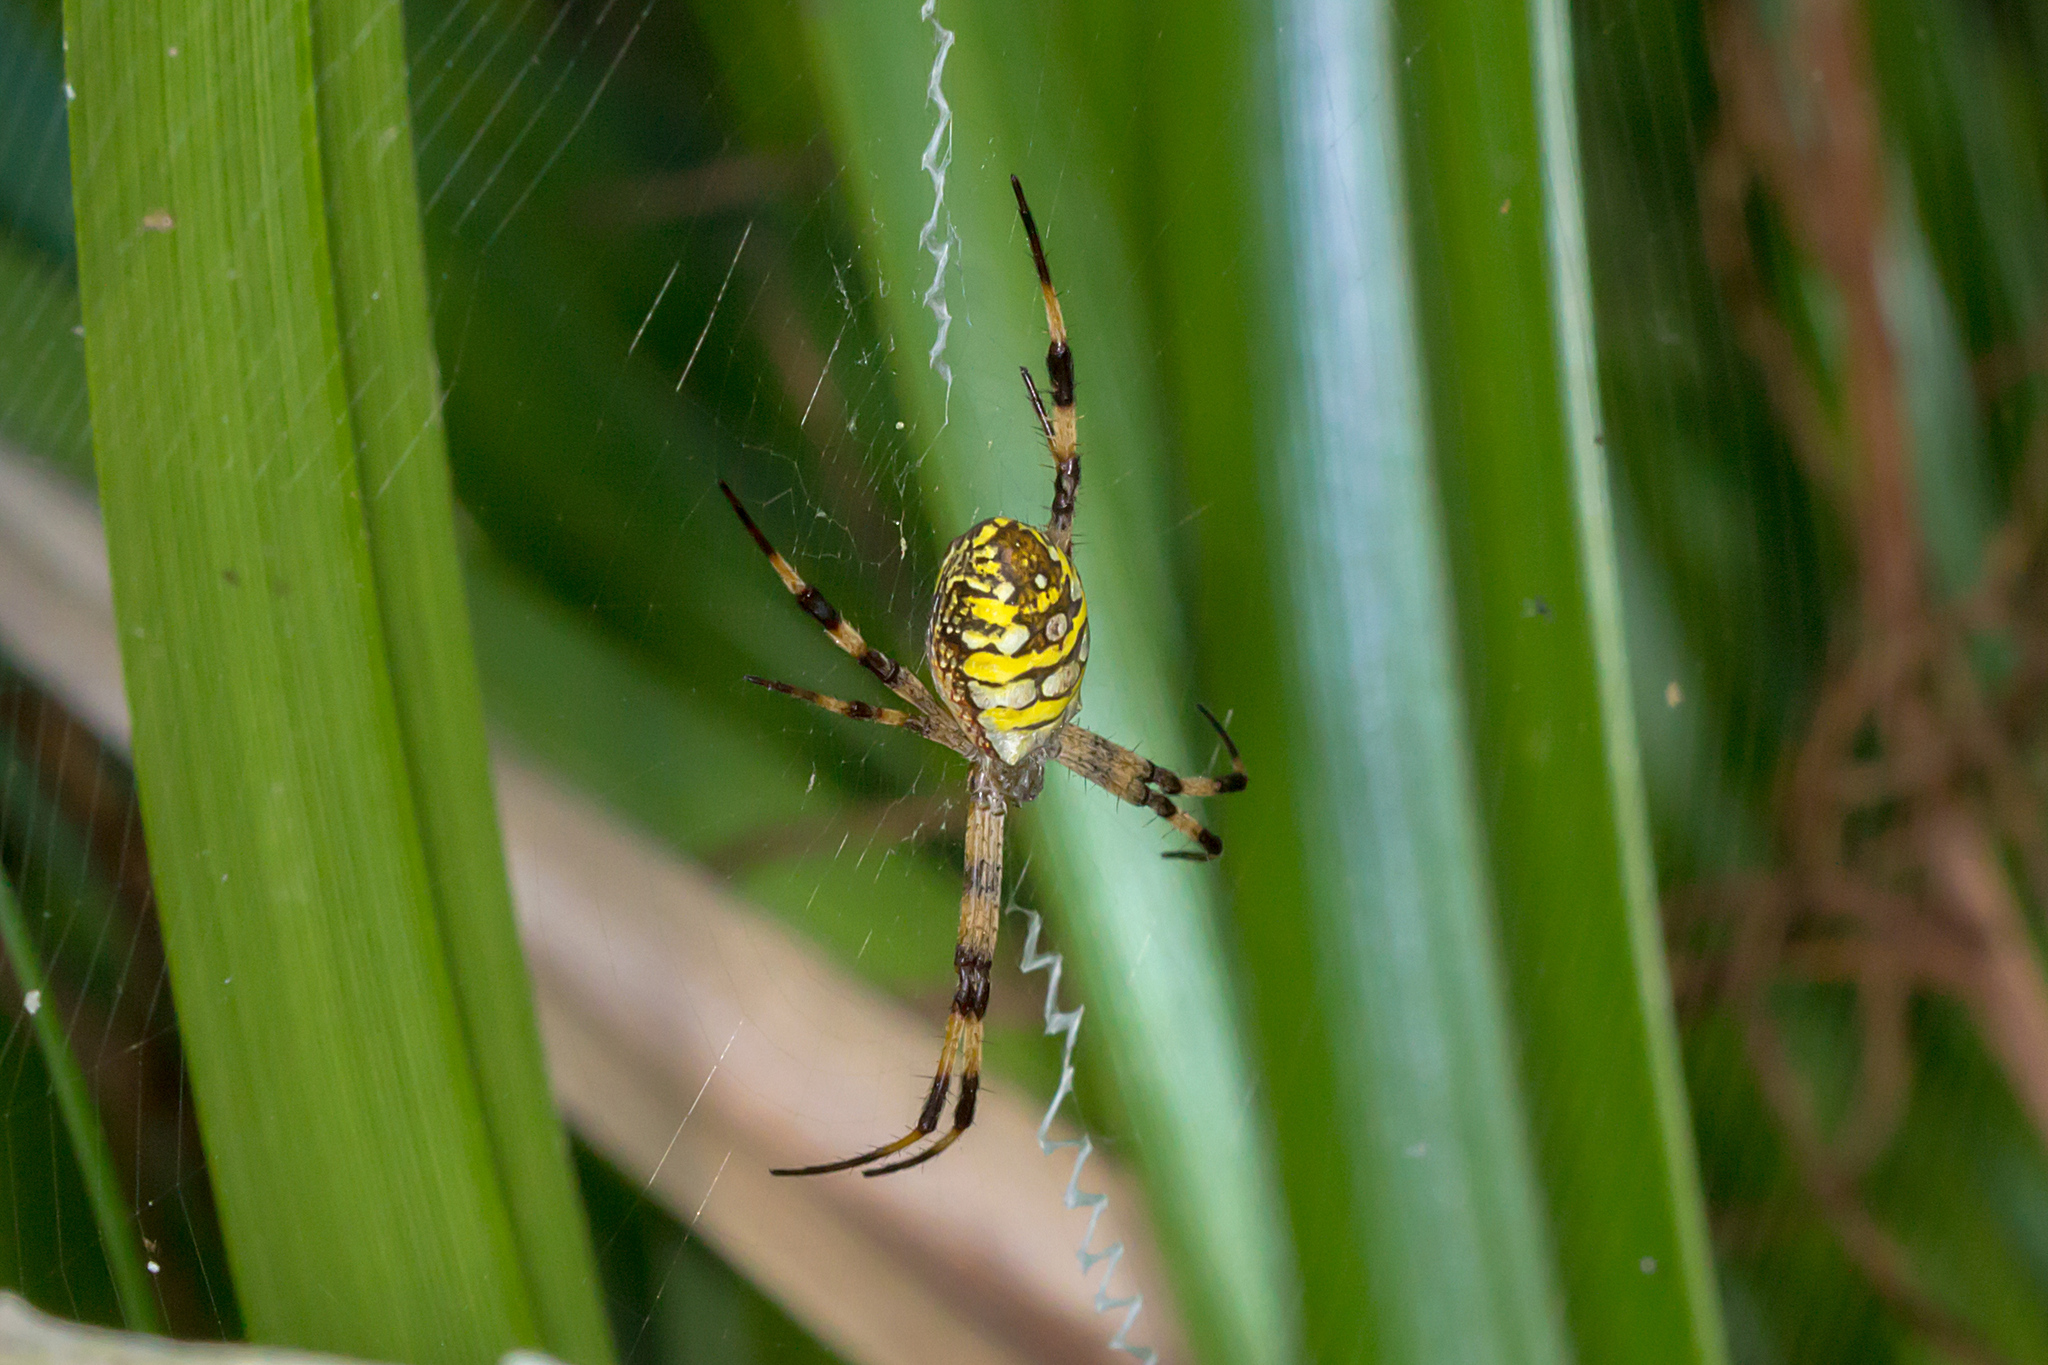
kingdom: Animalia
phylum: Arthropoda
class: Arachnida
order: Araneae
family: Araneidae
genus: Argiope
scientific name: Argiope picta
